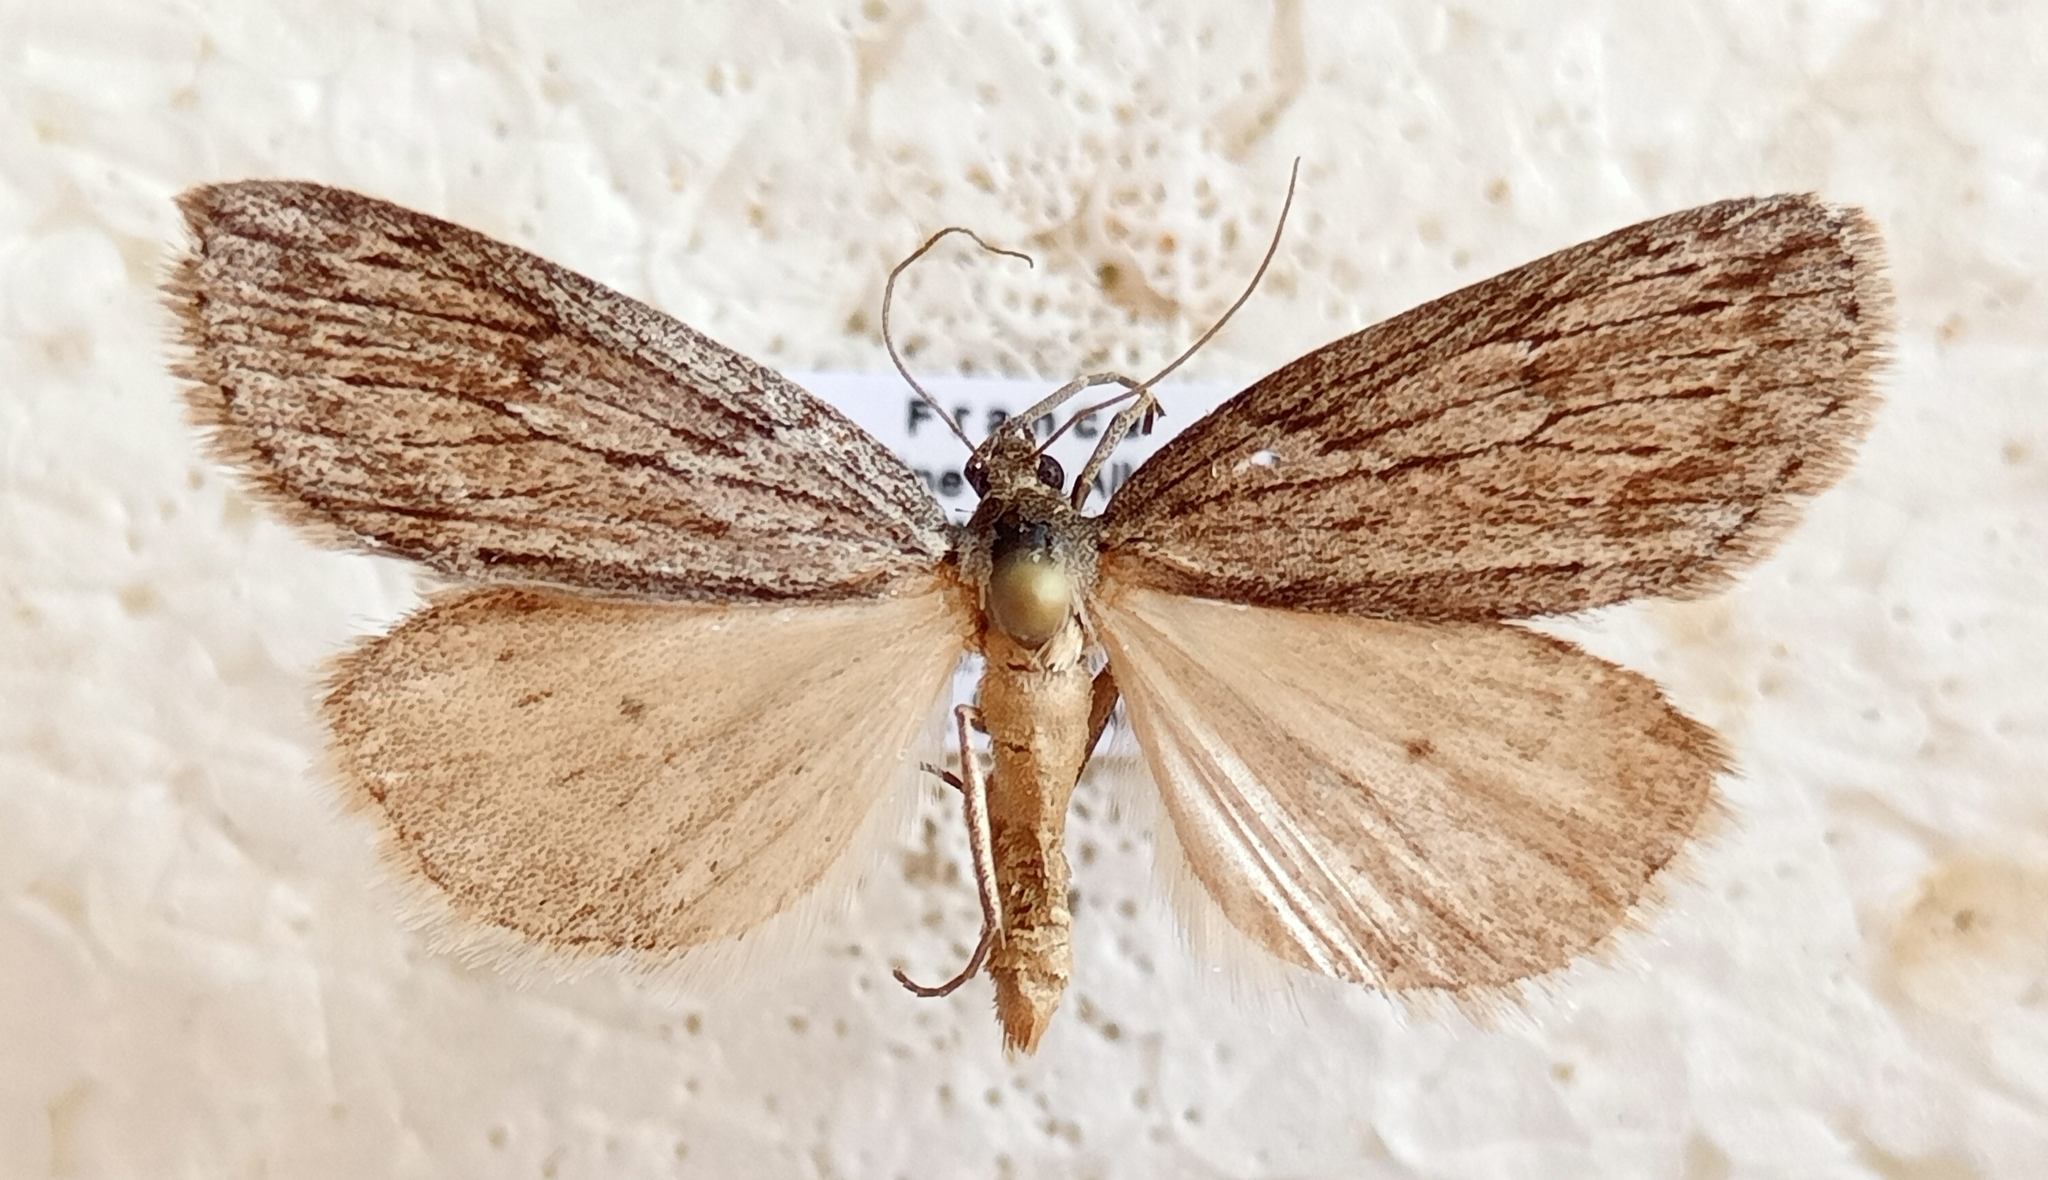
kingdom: Animalia
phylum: Arthropoda
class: Insecta
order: Lepidoptera
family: Geometridae
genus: Pachycnemia
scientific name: Pachycnemia hippocastanaria
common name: Horse chestnut
